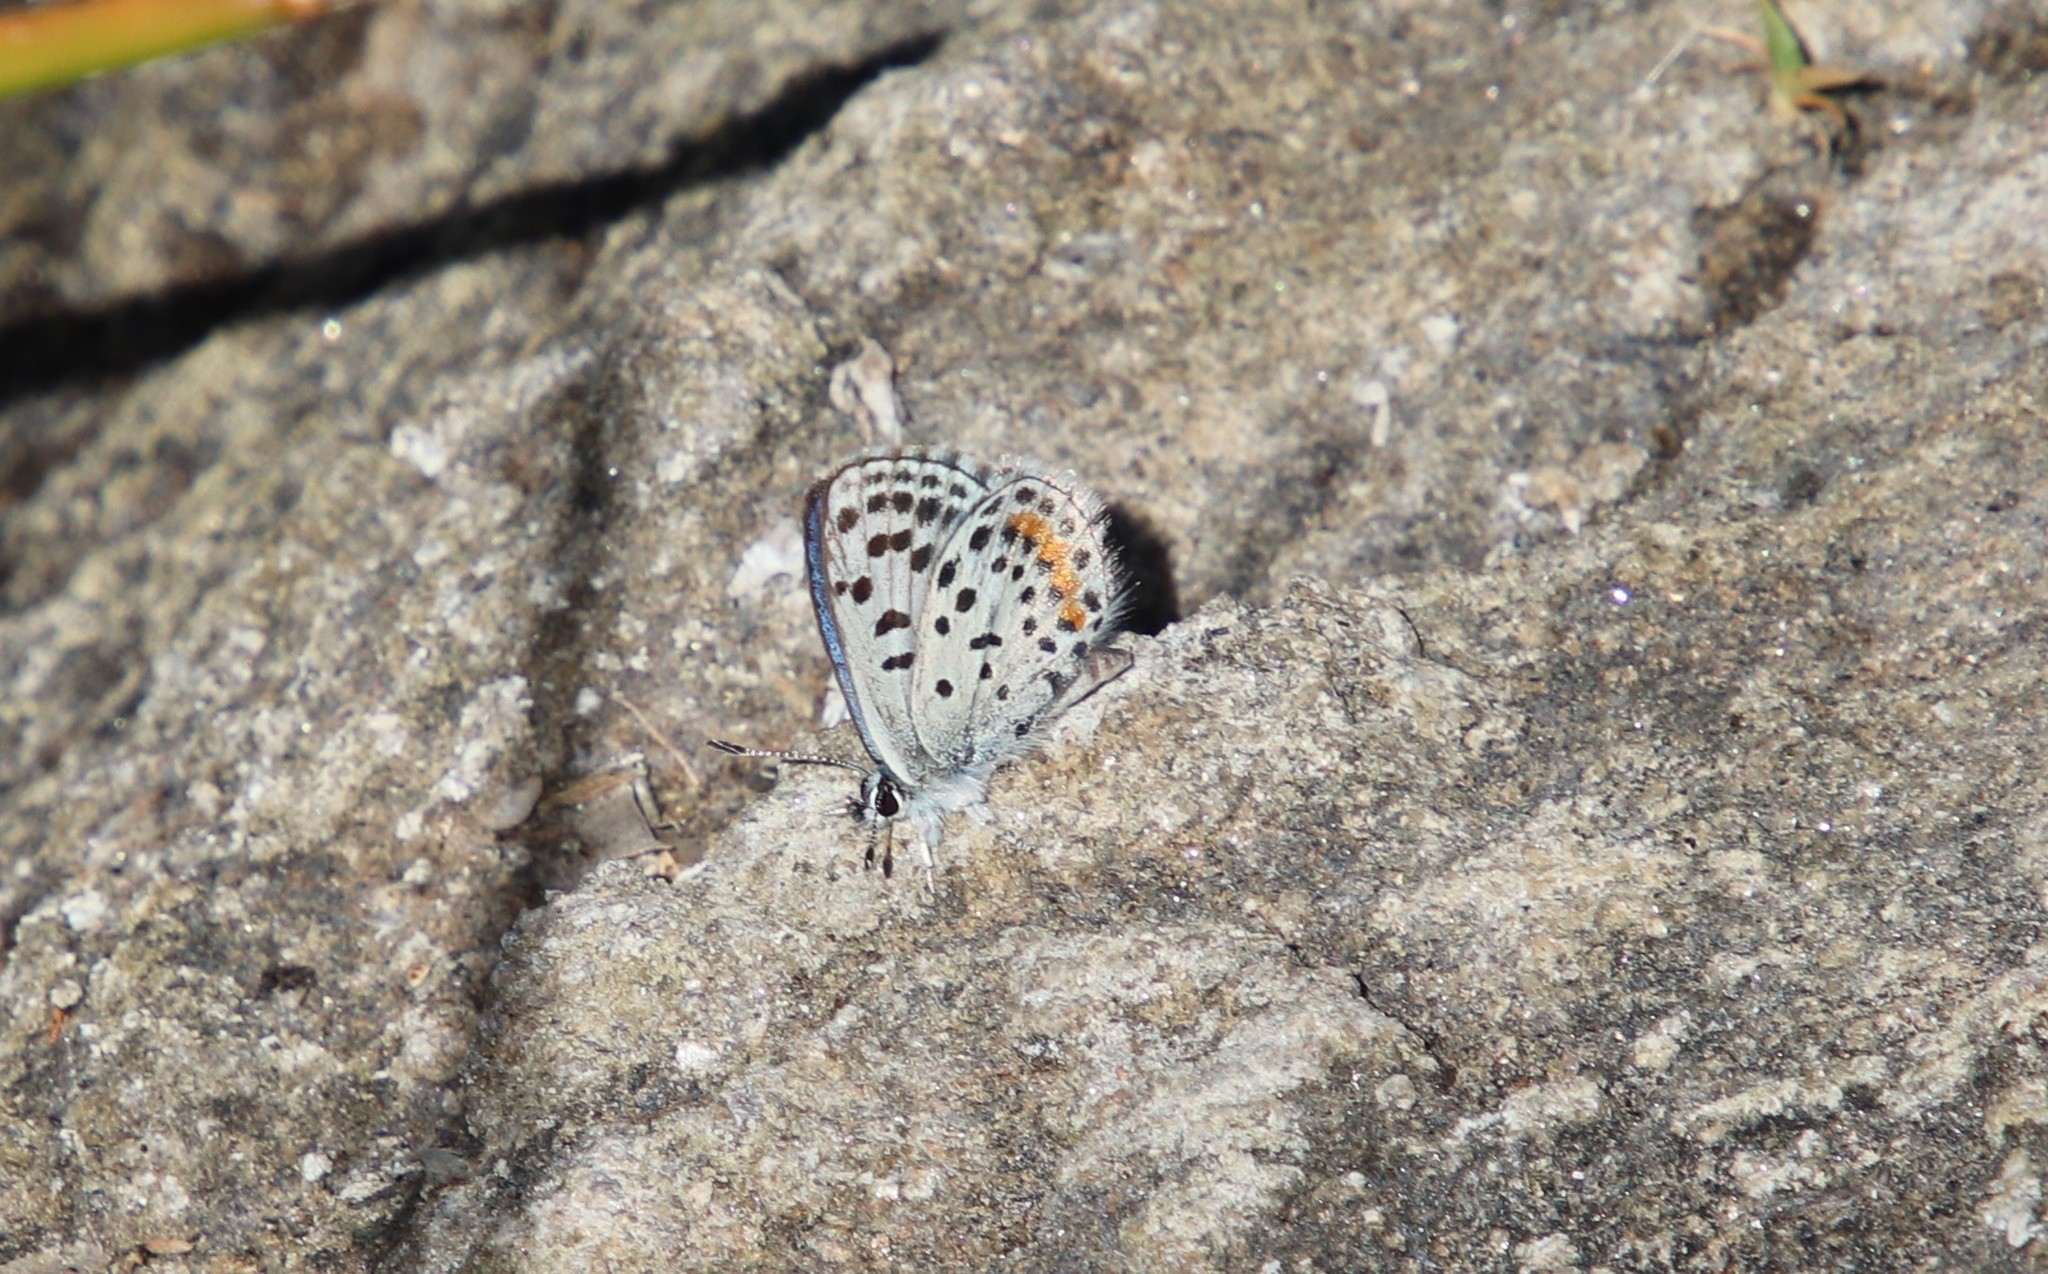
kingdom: Animalia
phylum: Arthropoda
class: Insecta
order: Lepidoptera
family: Lycaenidae
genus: Philotes
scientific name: Philotes bernardino
